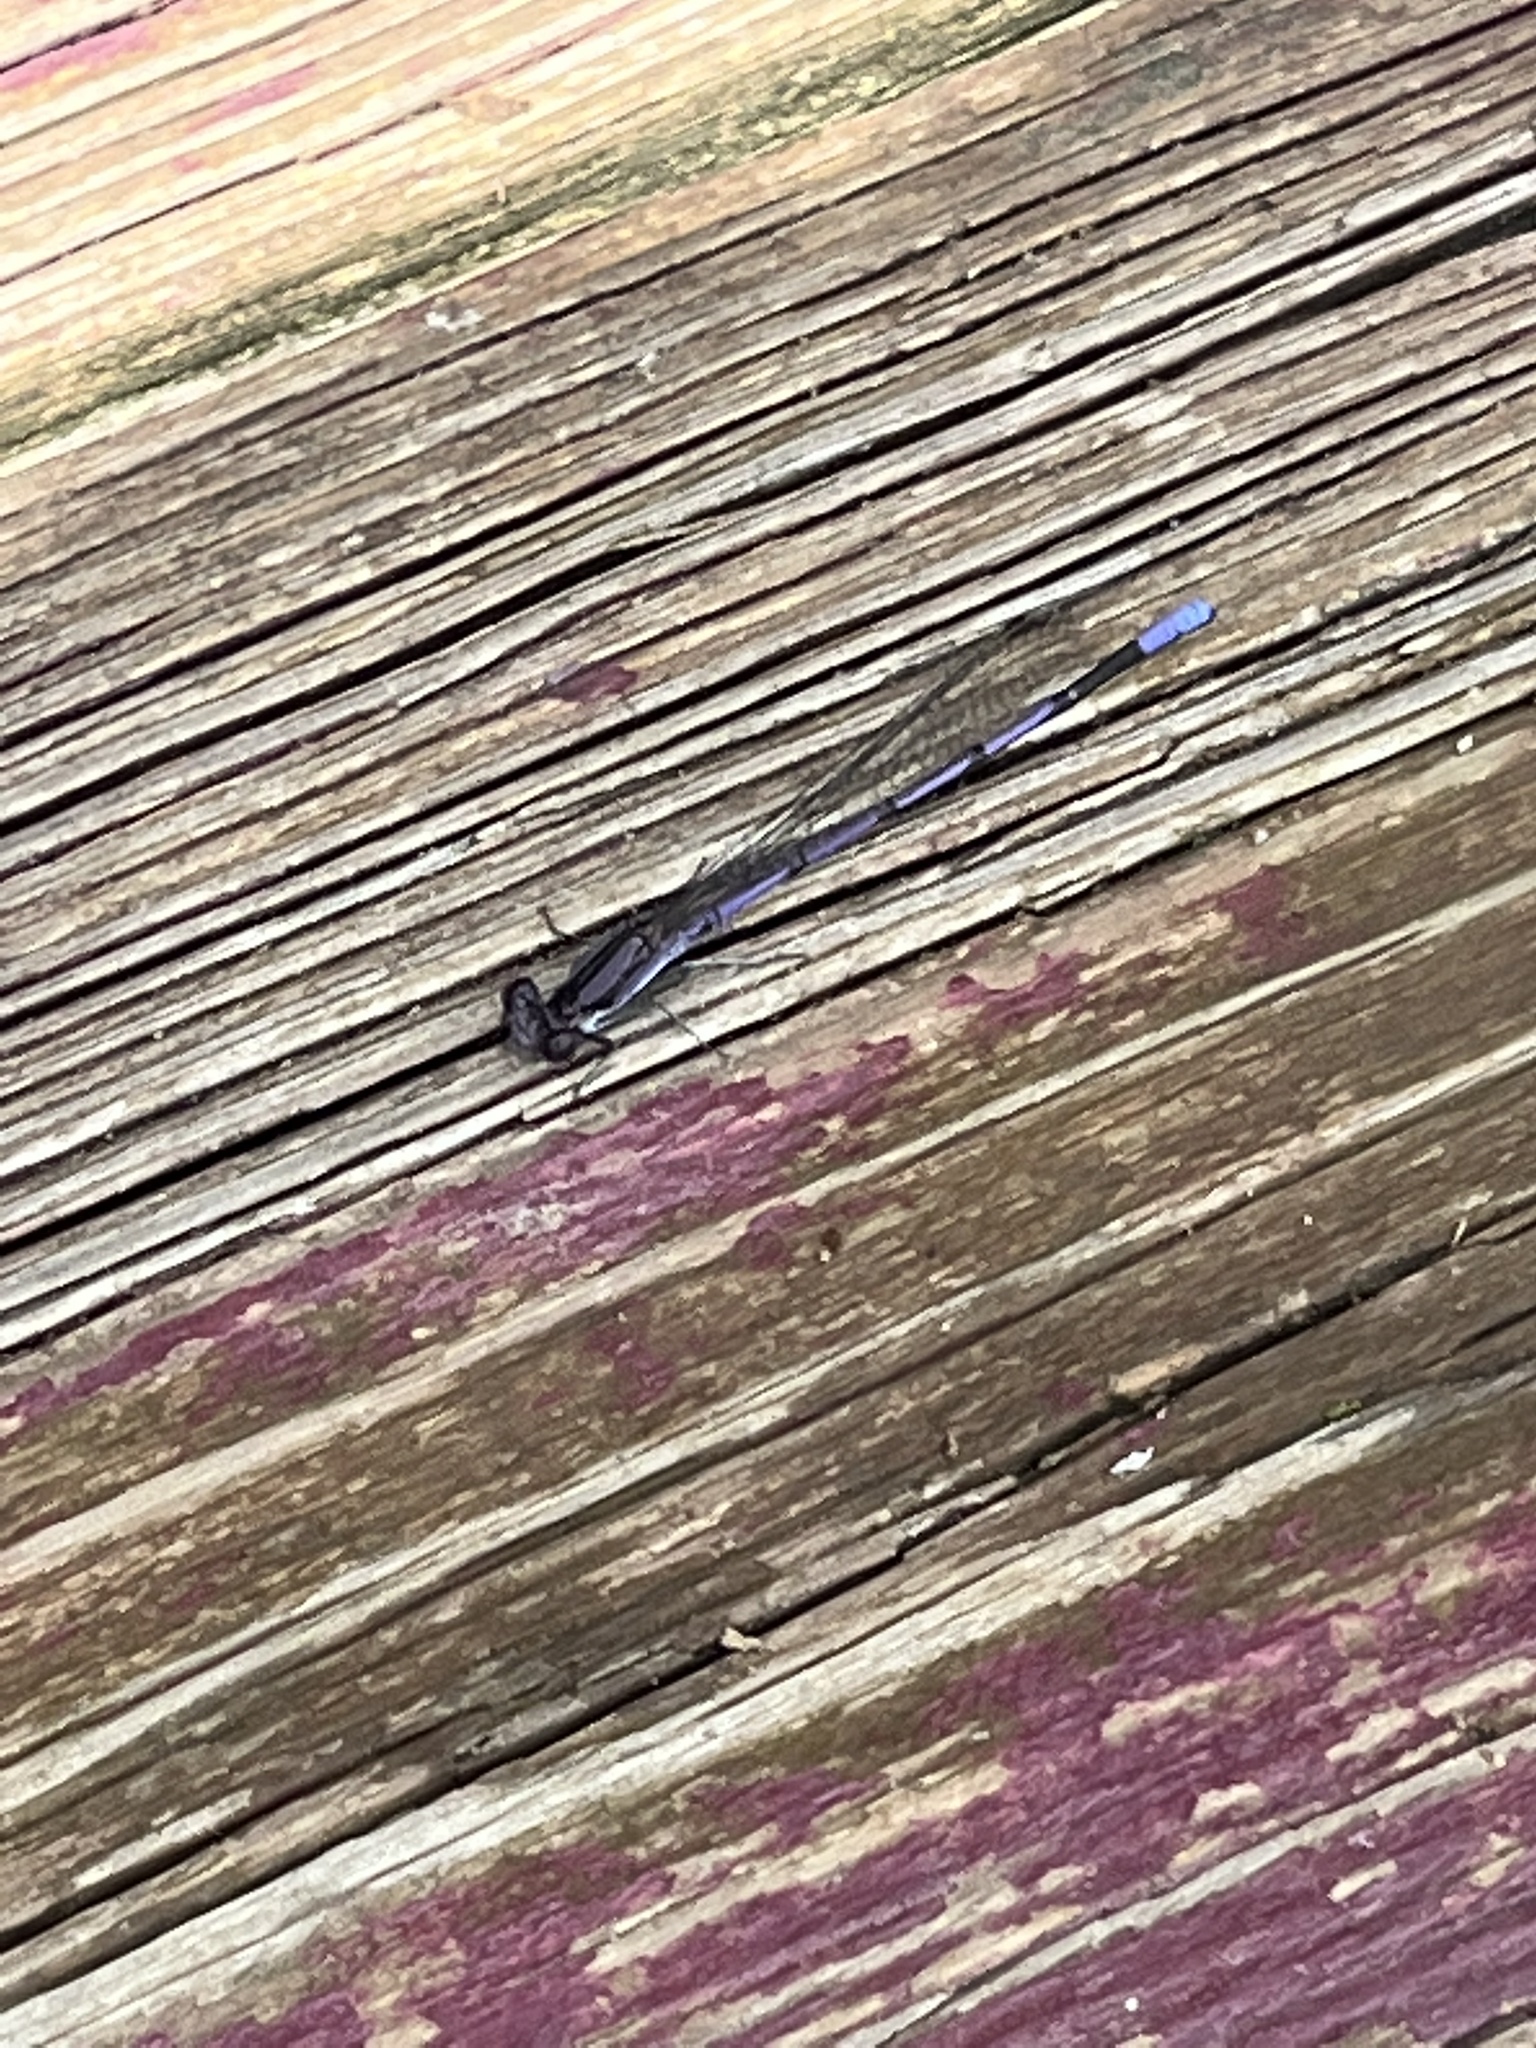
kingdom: Animalia
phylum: Arthropoda
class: Insecta
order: Odonata
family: Coenagrionidae
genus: Argia
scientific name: Argia fumipennis
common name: Variable dancer
